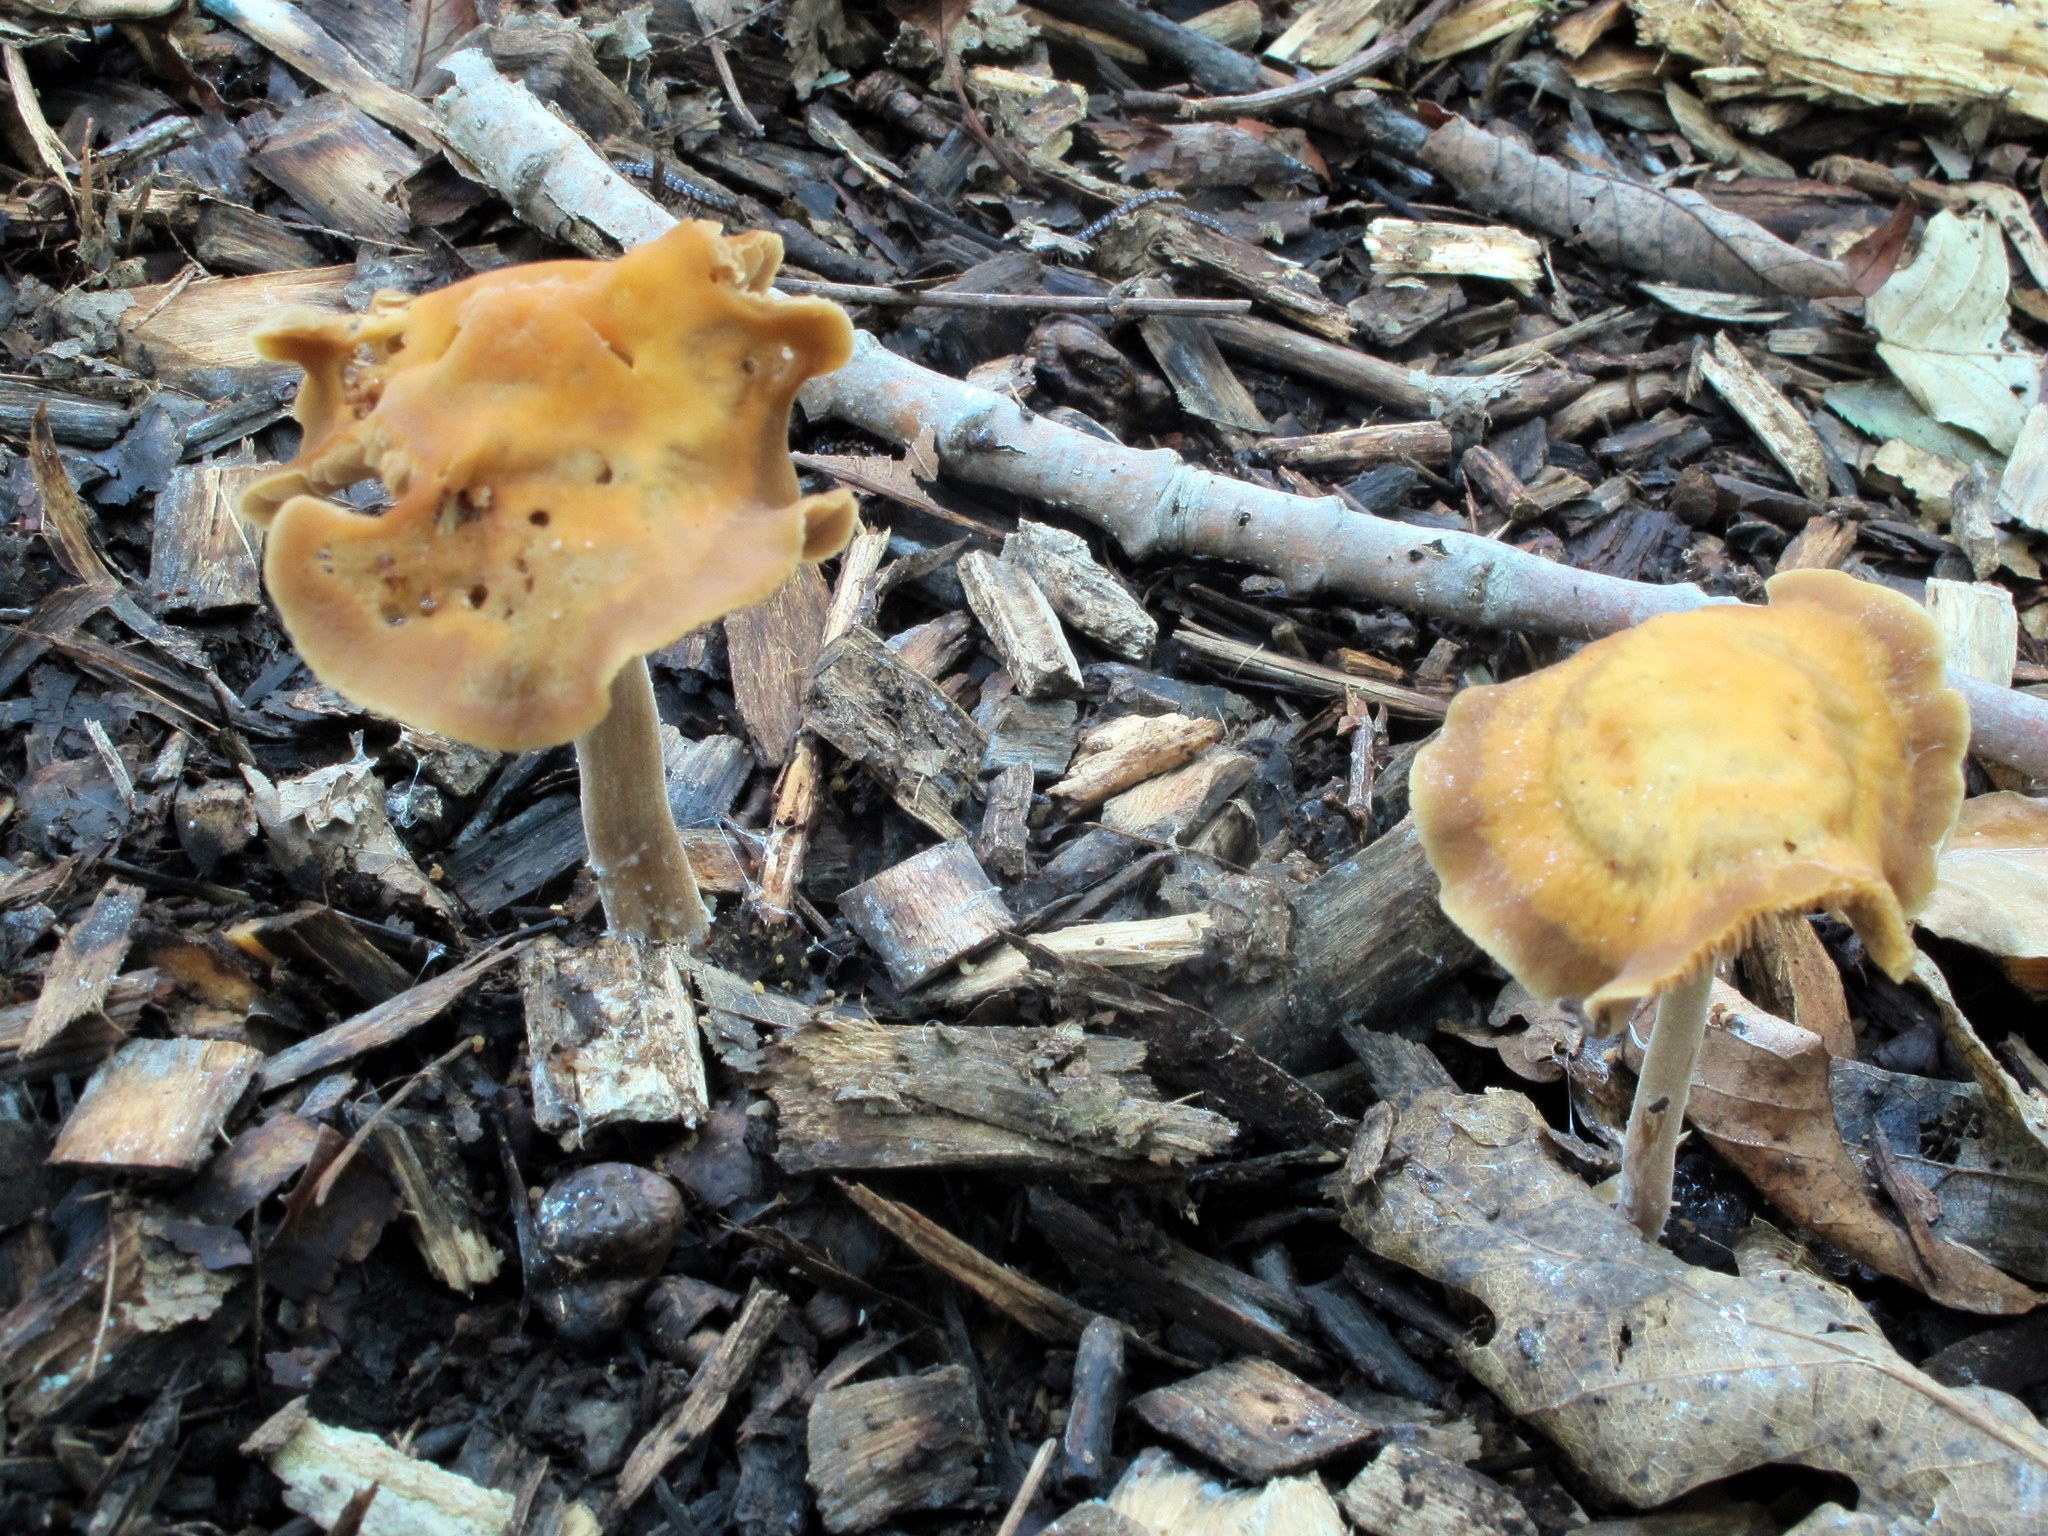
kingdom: Fungi
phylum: Basidiomycota
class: Agaricomycetes
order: Agaricales
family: Strophariaceae
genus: Agrocybe
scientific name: Agrocybe arvalis
